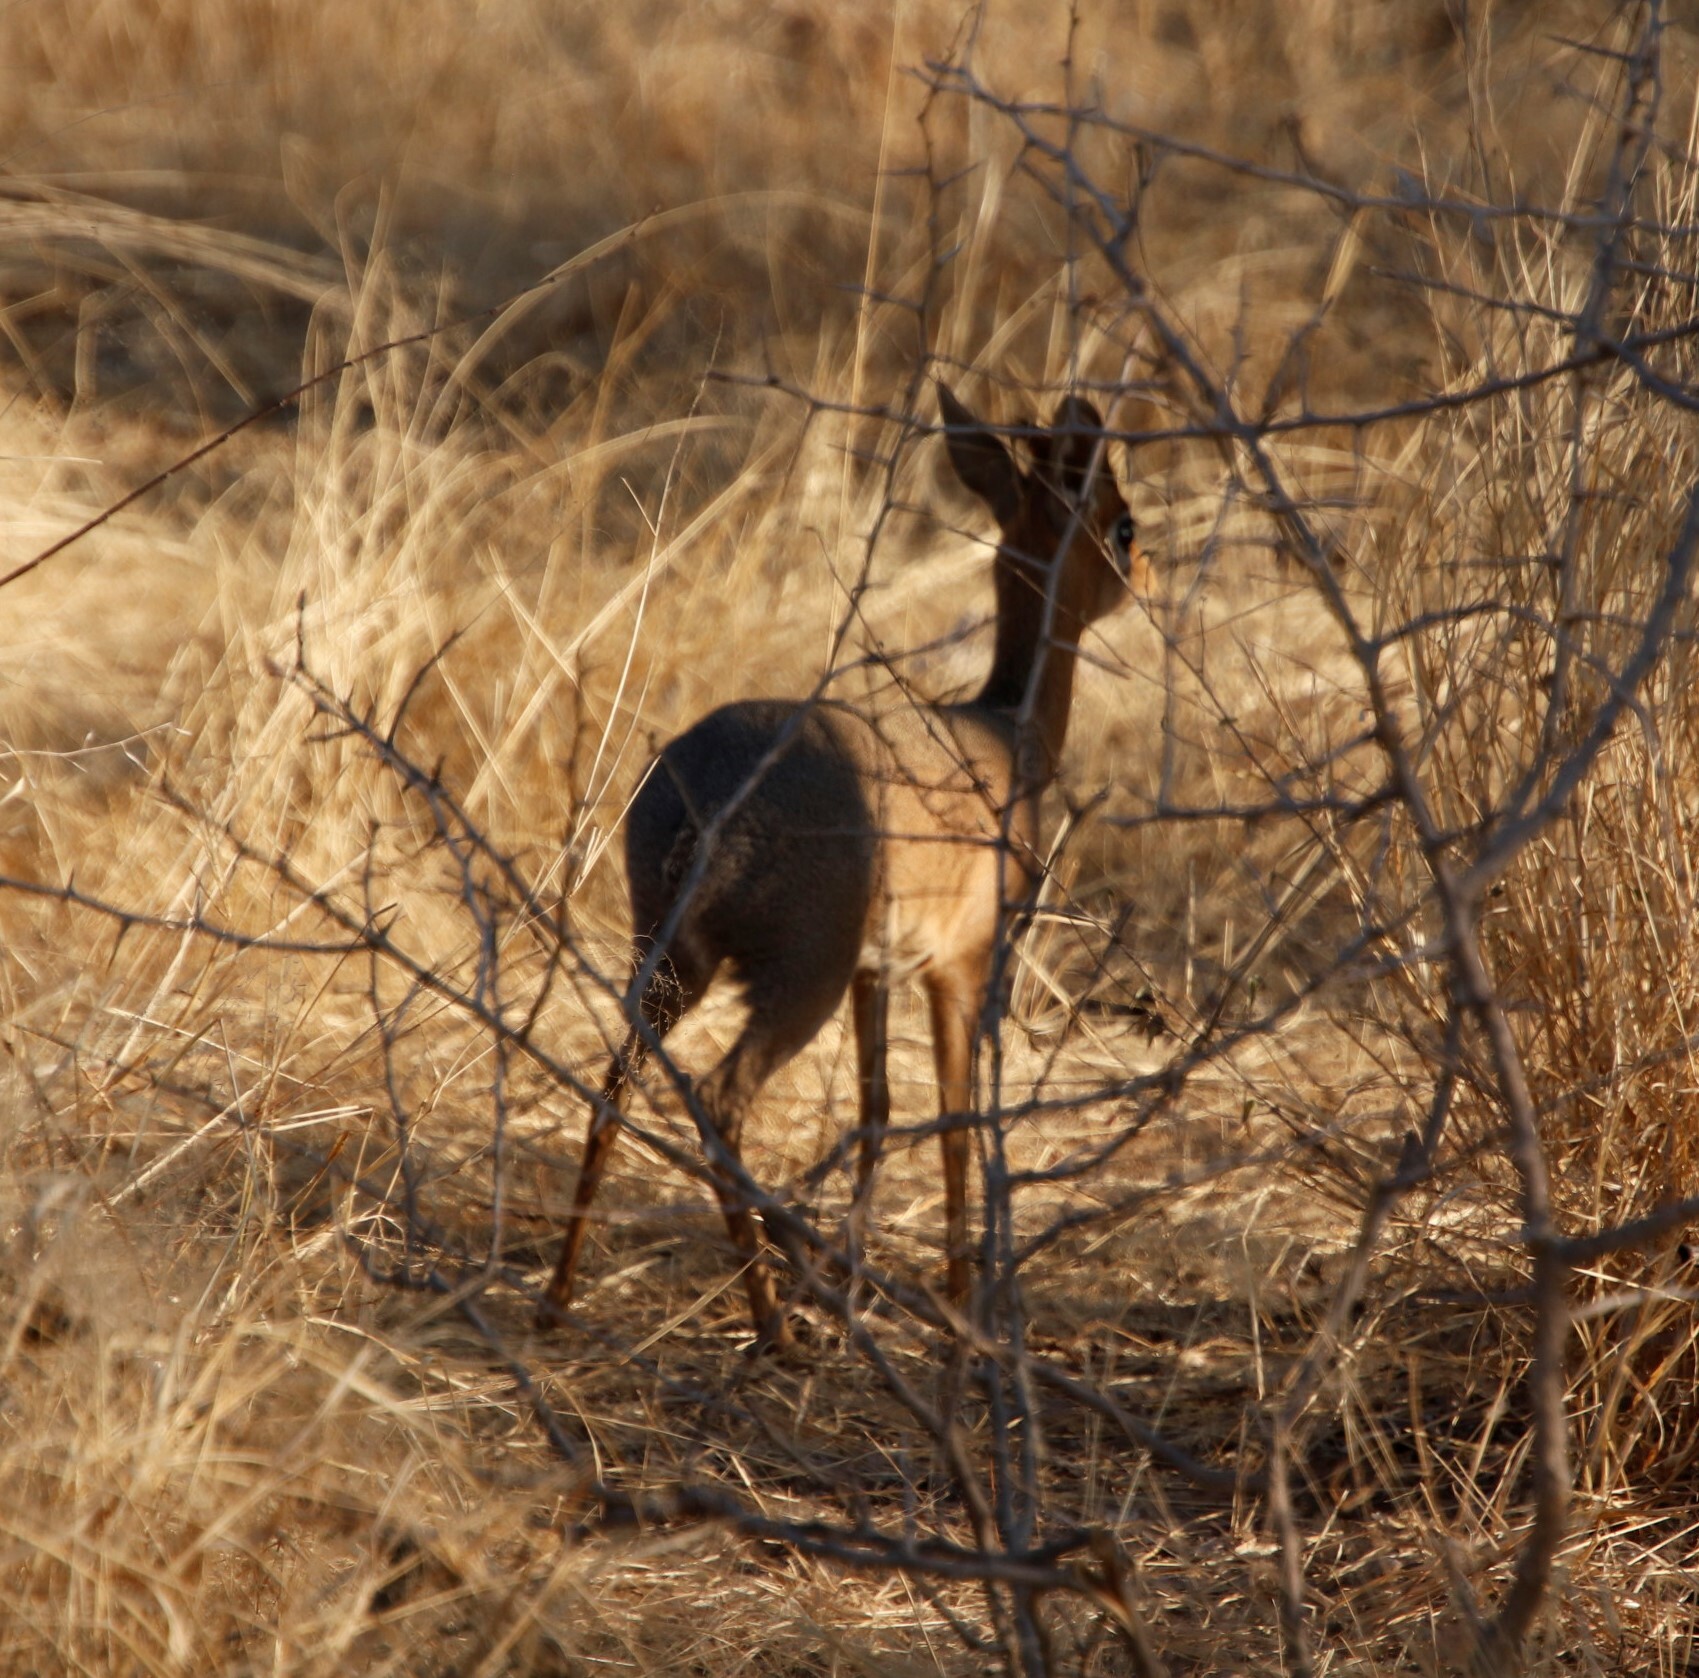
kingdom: Animalia
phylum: Chordata
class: Mammalia
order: Artiodactyla
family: Bovidae
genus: Madoqua
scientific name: Madoqua kirkii
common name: Kirk's dik-dik
